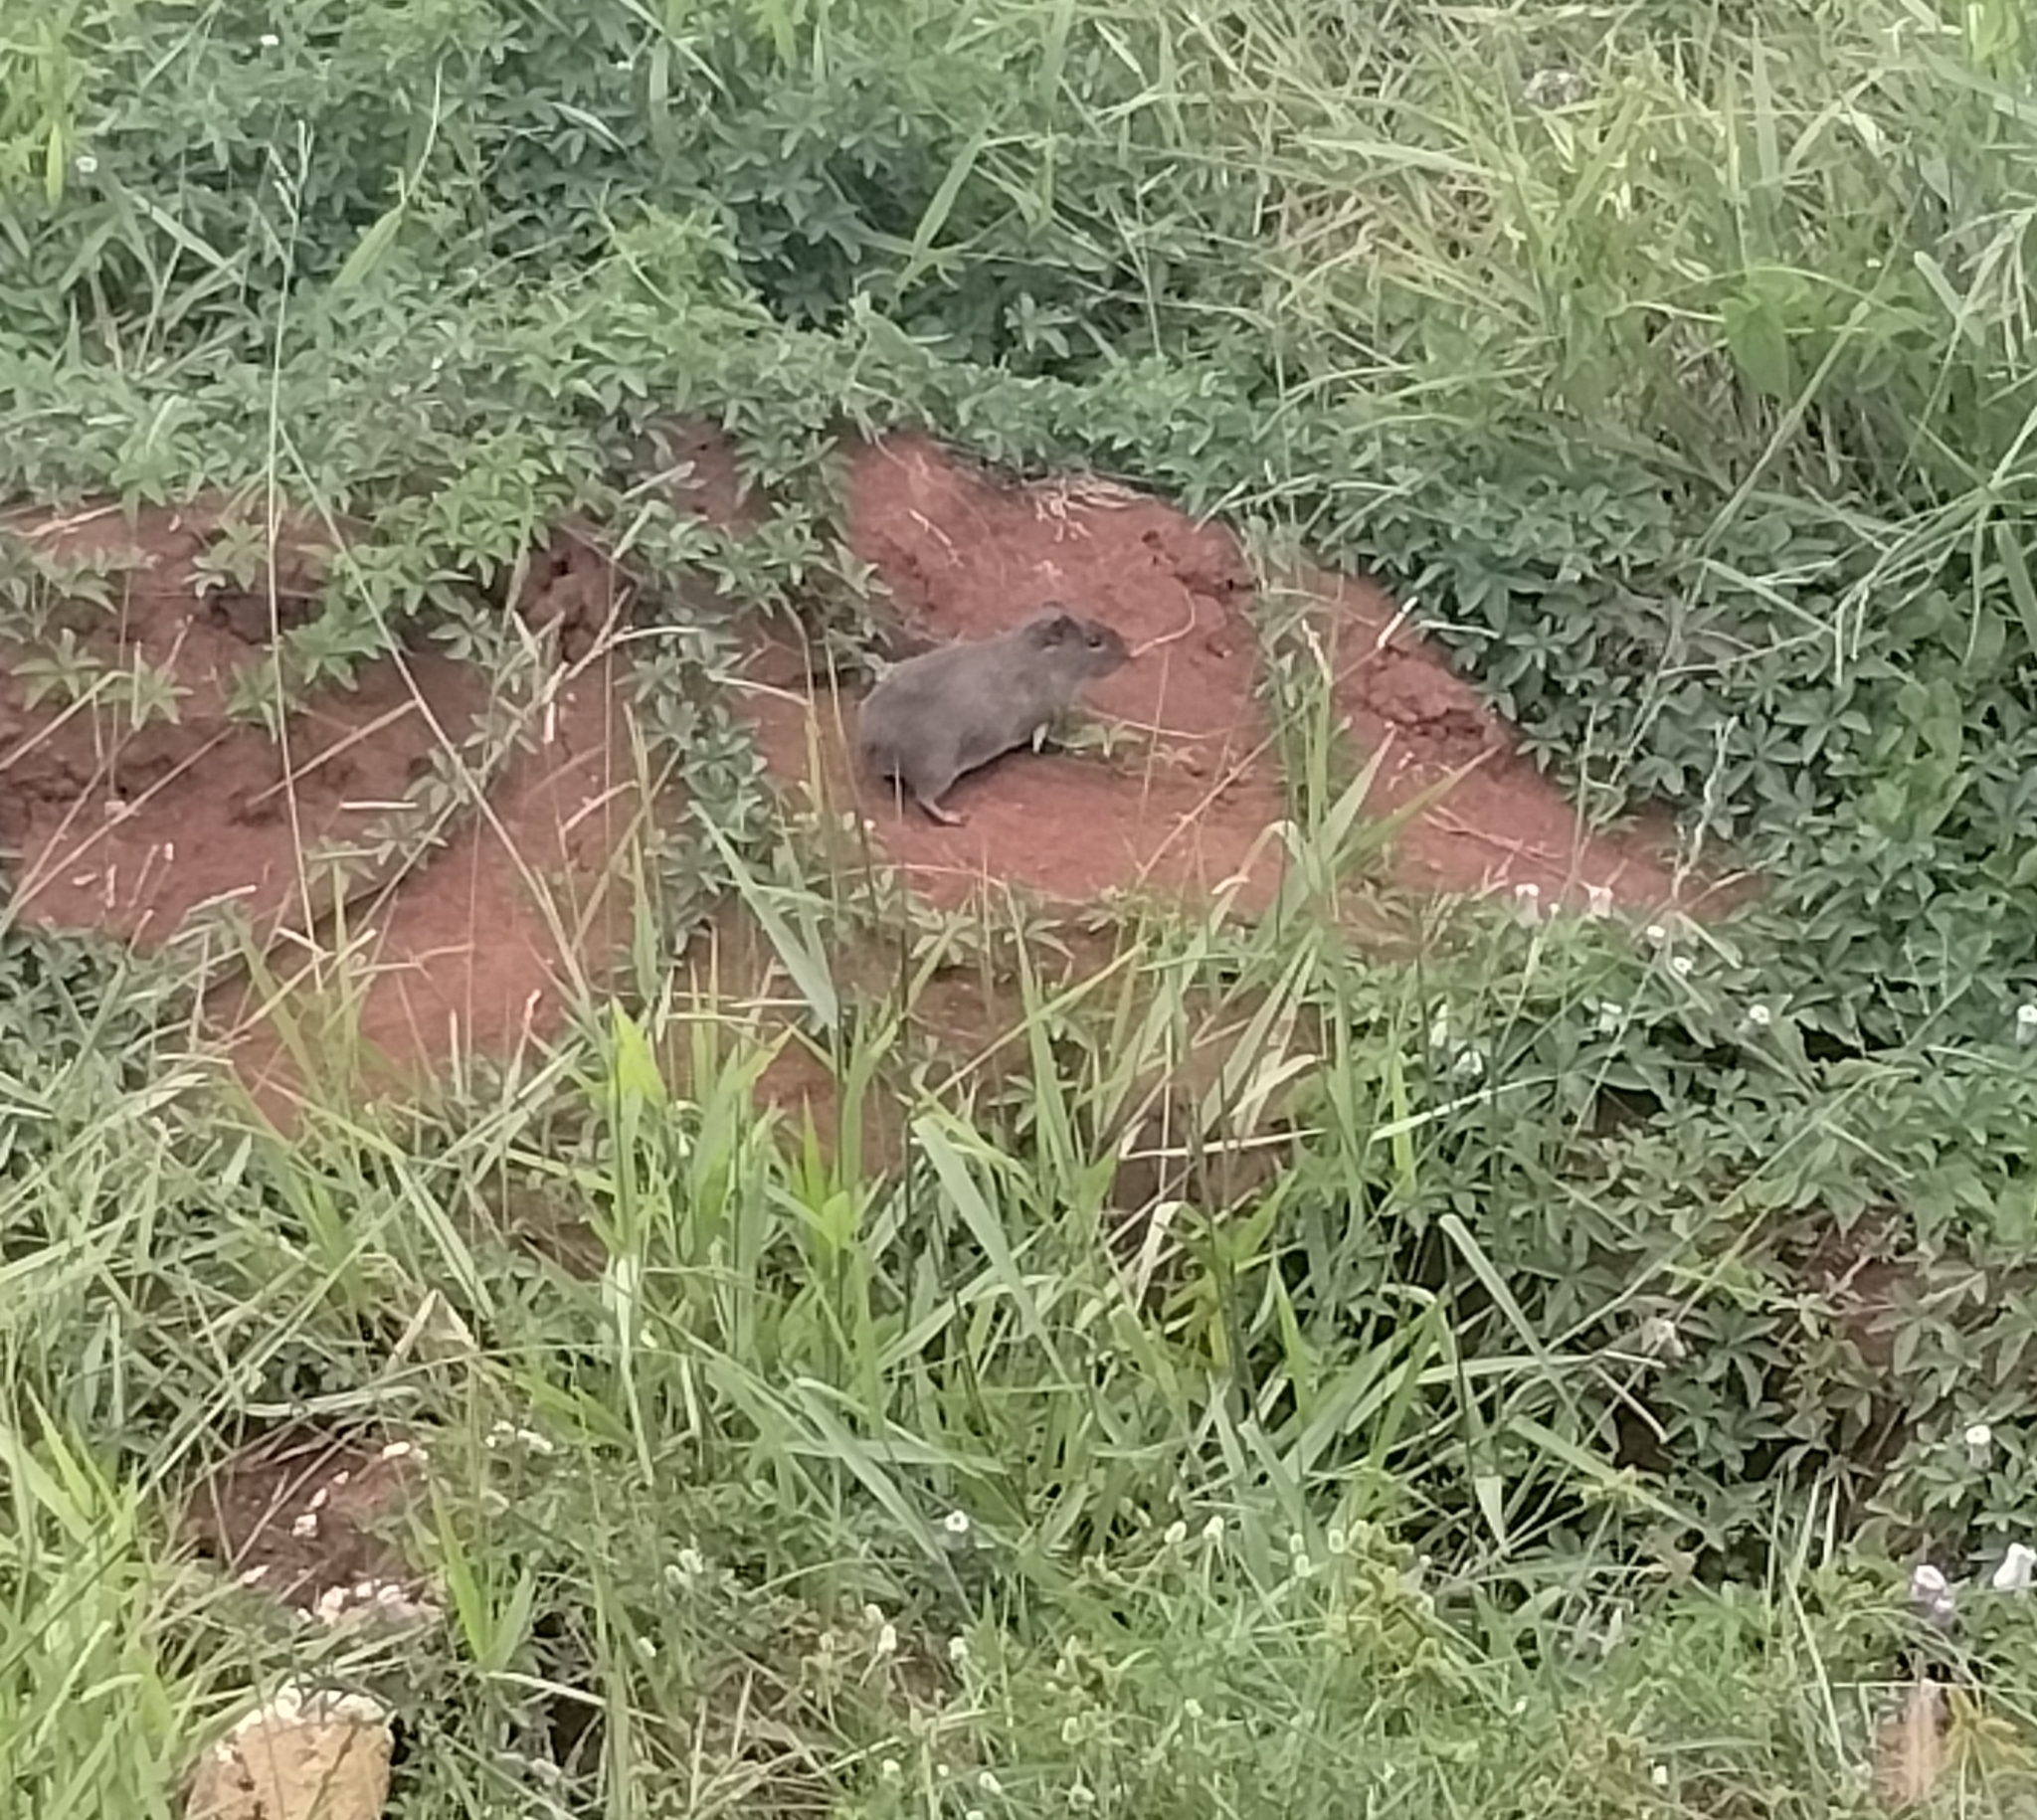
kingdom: Animalia
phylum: Chordata
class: Mammalia
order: Rodentia
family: Caviidae
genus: Cavia
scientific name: Cavia aperea
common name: Brazilian guinea pig
